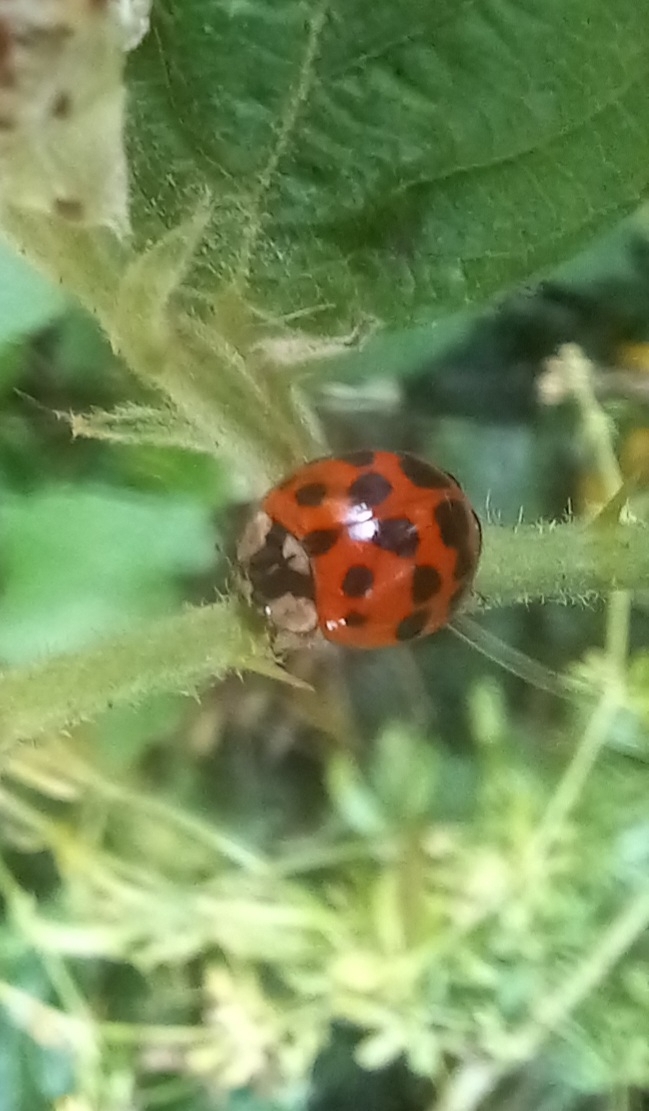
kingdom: Animalia
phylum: Arthropoda
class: Insecta
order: Coleoptera
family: Coccinellidae
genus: Harmonia
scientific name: Harmonia axyridis
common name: Harlequin ladybird
